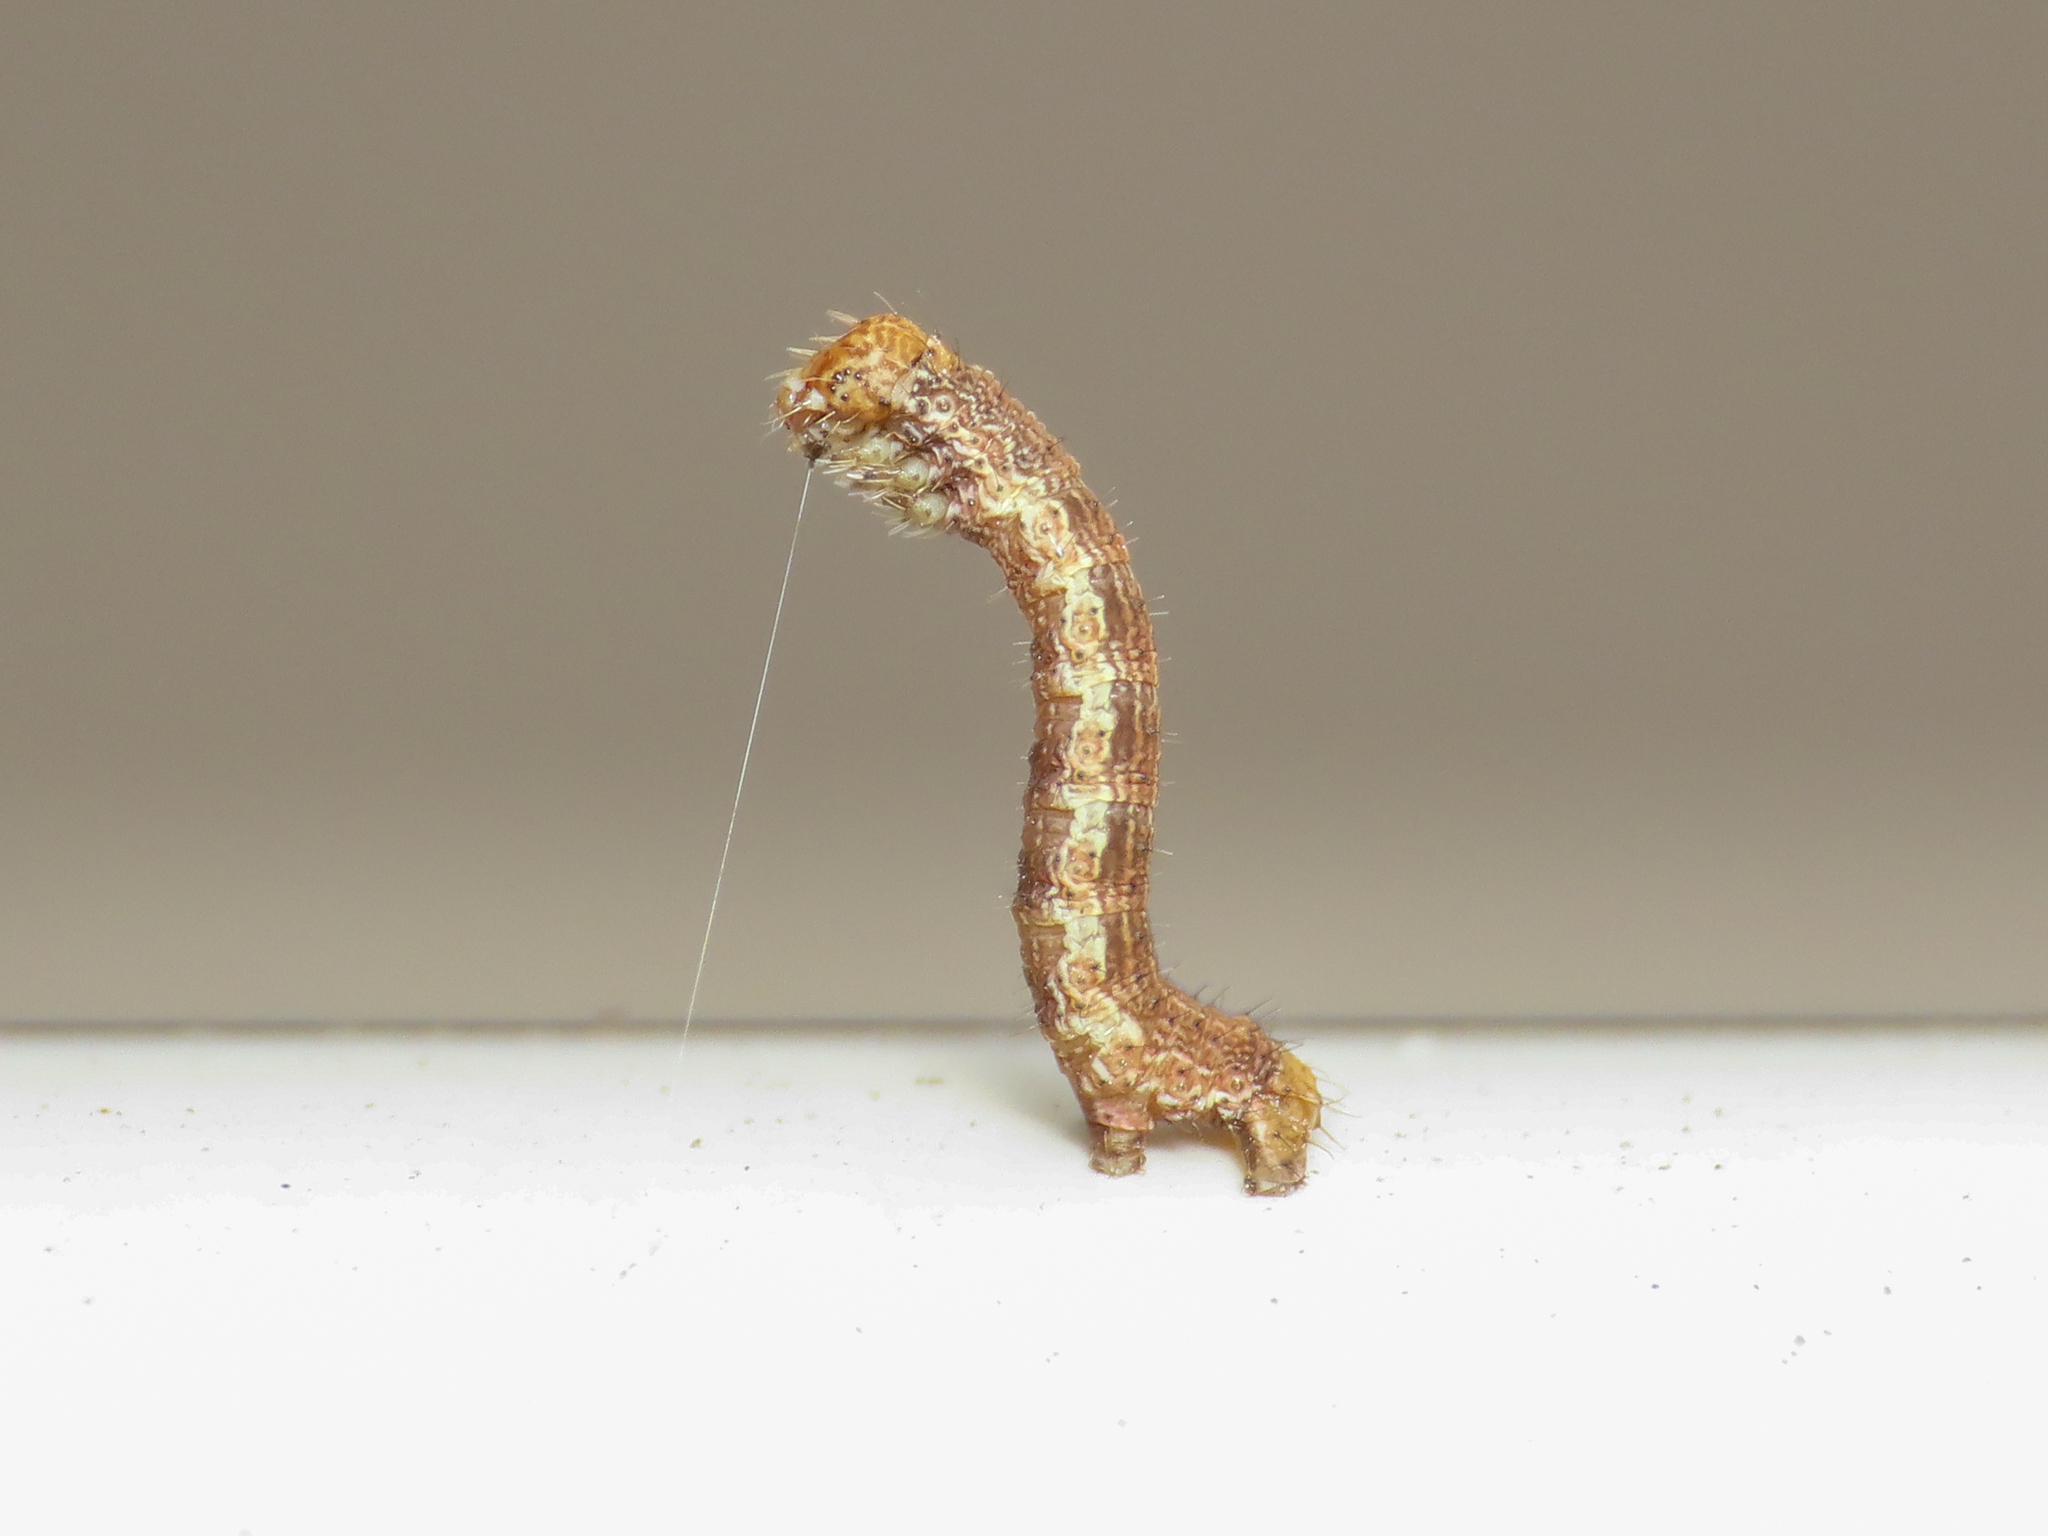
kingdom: Animalia
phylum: Arthropoda
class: Insecta
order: Lepidoptera
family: Geometridae
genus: Erannis
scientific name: Erannis defoliaria
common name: Mottled umber
